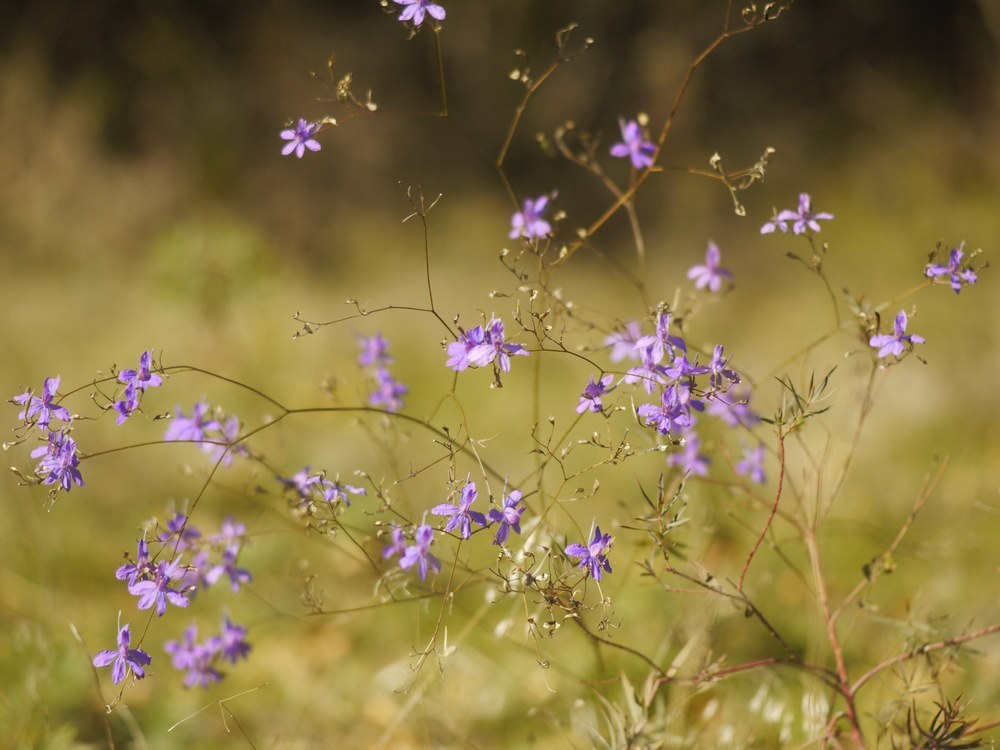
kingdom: Plantae
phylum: Tracheophyta
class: Magnoliopsida
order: Ranunculales
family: Ranunculaceae
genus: Delphinium
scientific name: Delphinium consolida
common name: Branching larkspur
